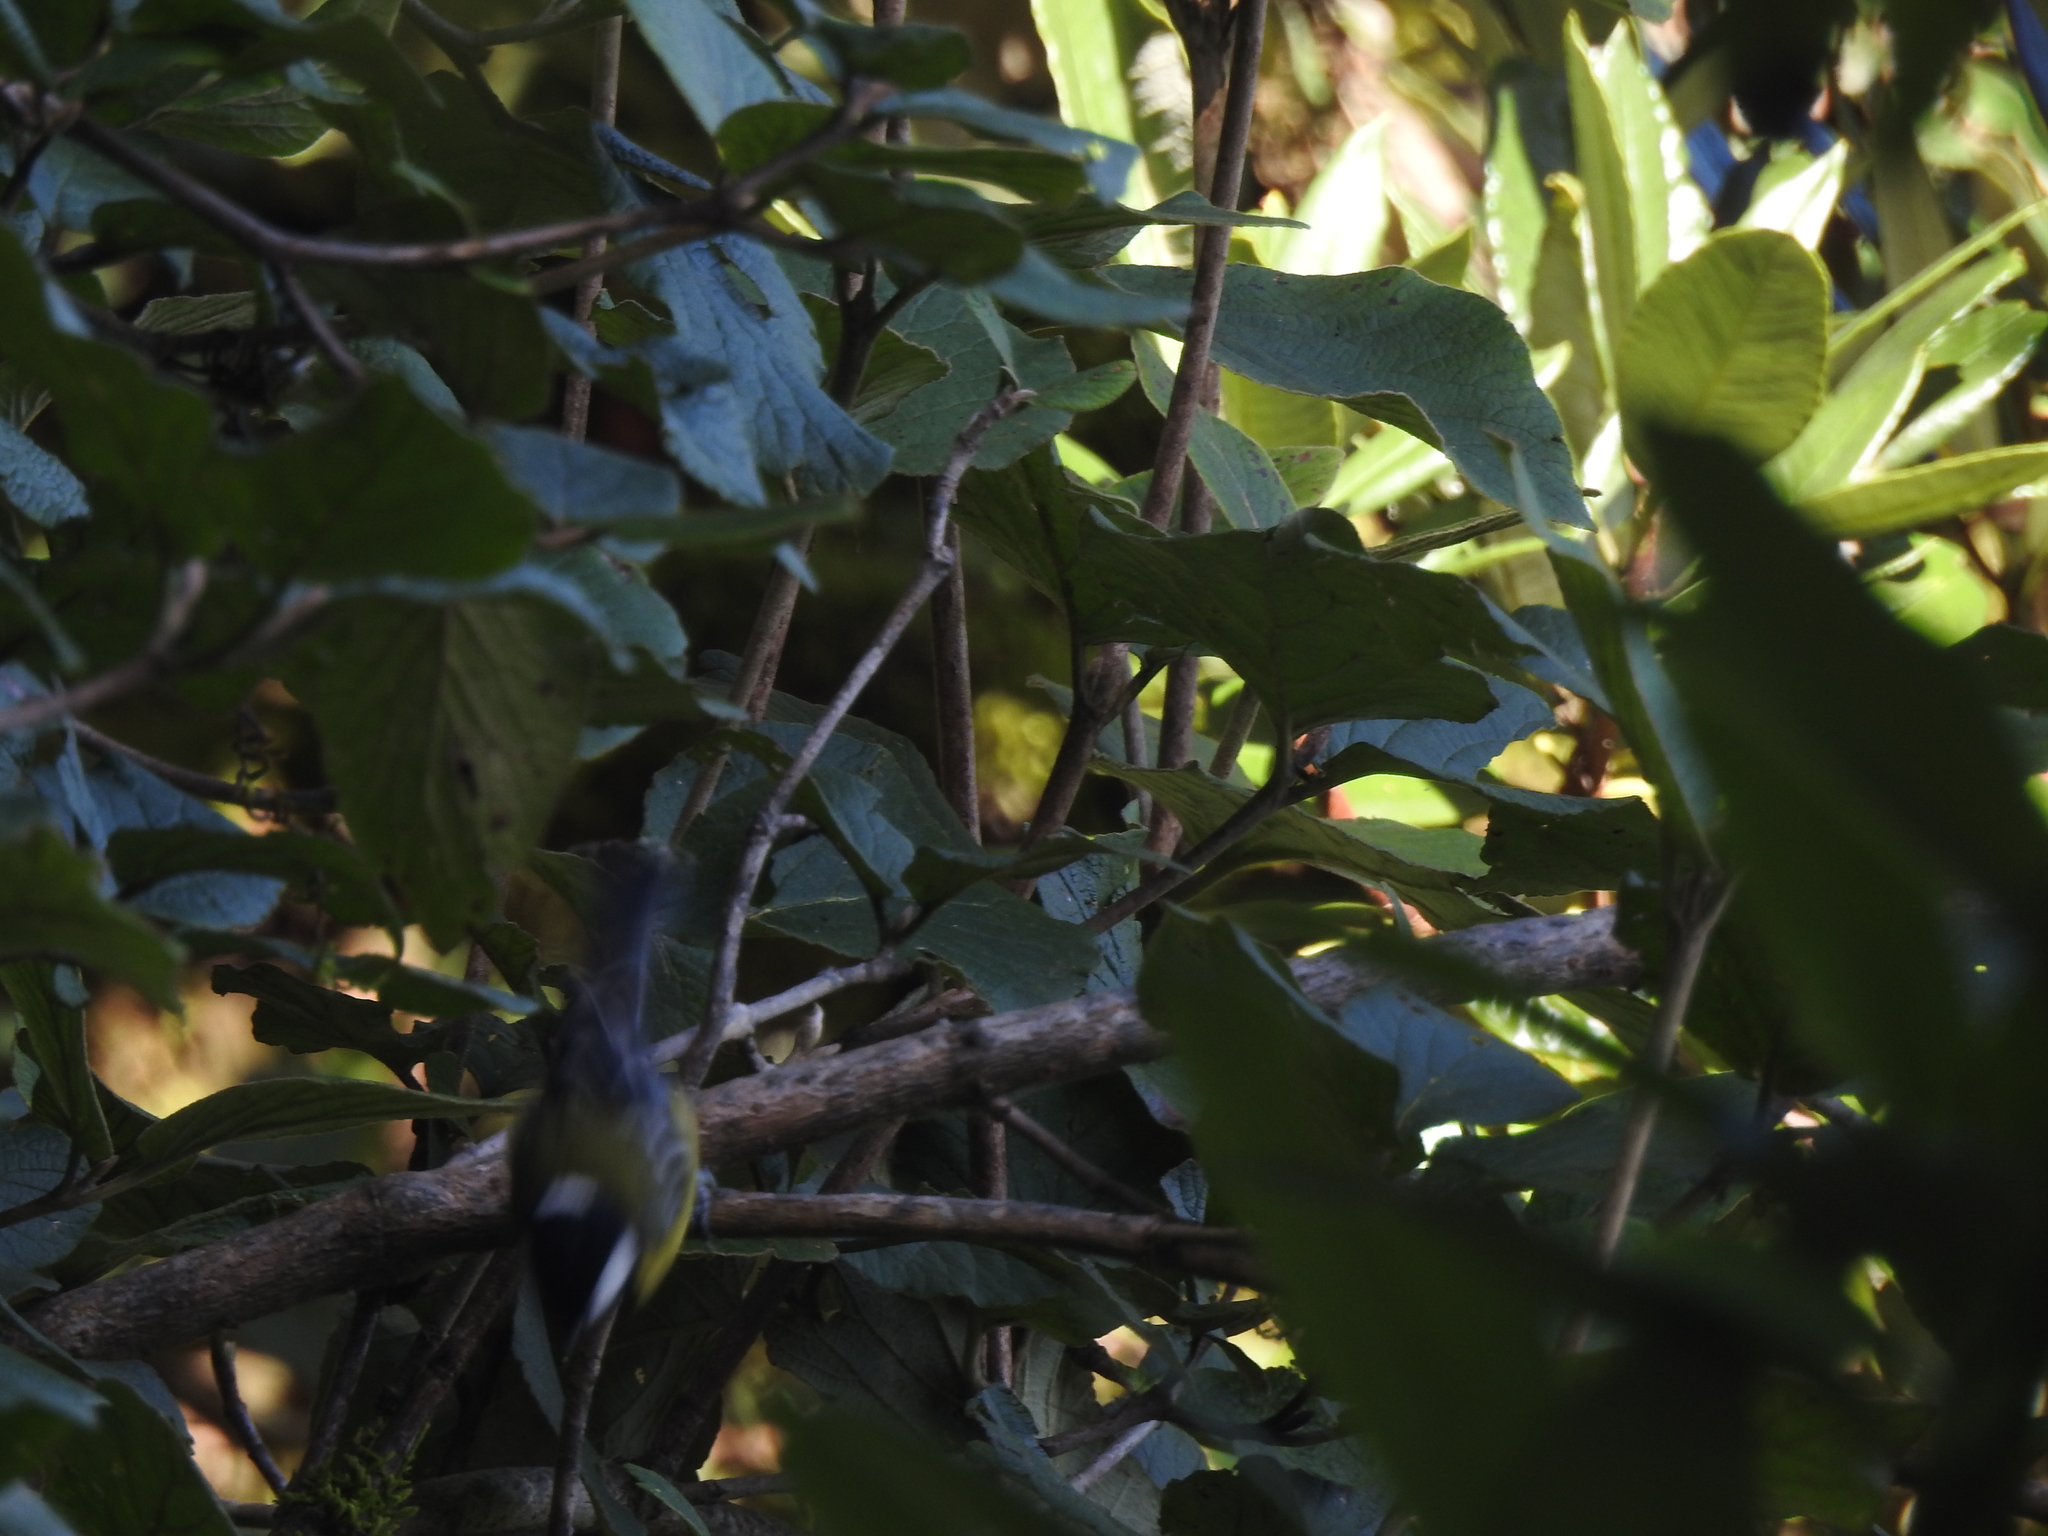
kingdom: Animalia
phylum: Chordata
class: Aves
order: Passeriformes
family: Paridae
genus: Parus
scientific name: Parus monticolus
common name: Green-backed tit
